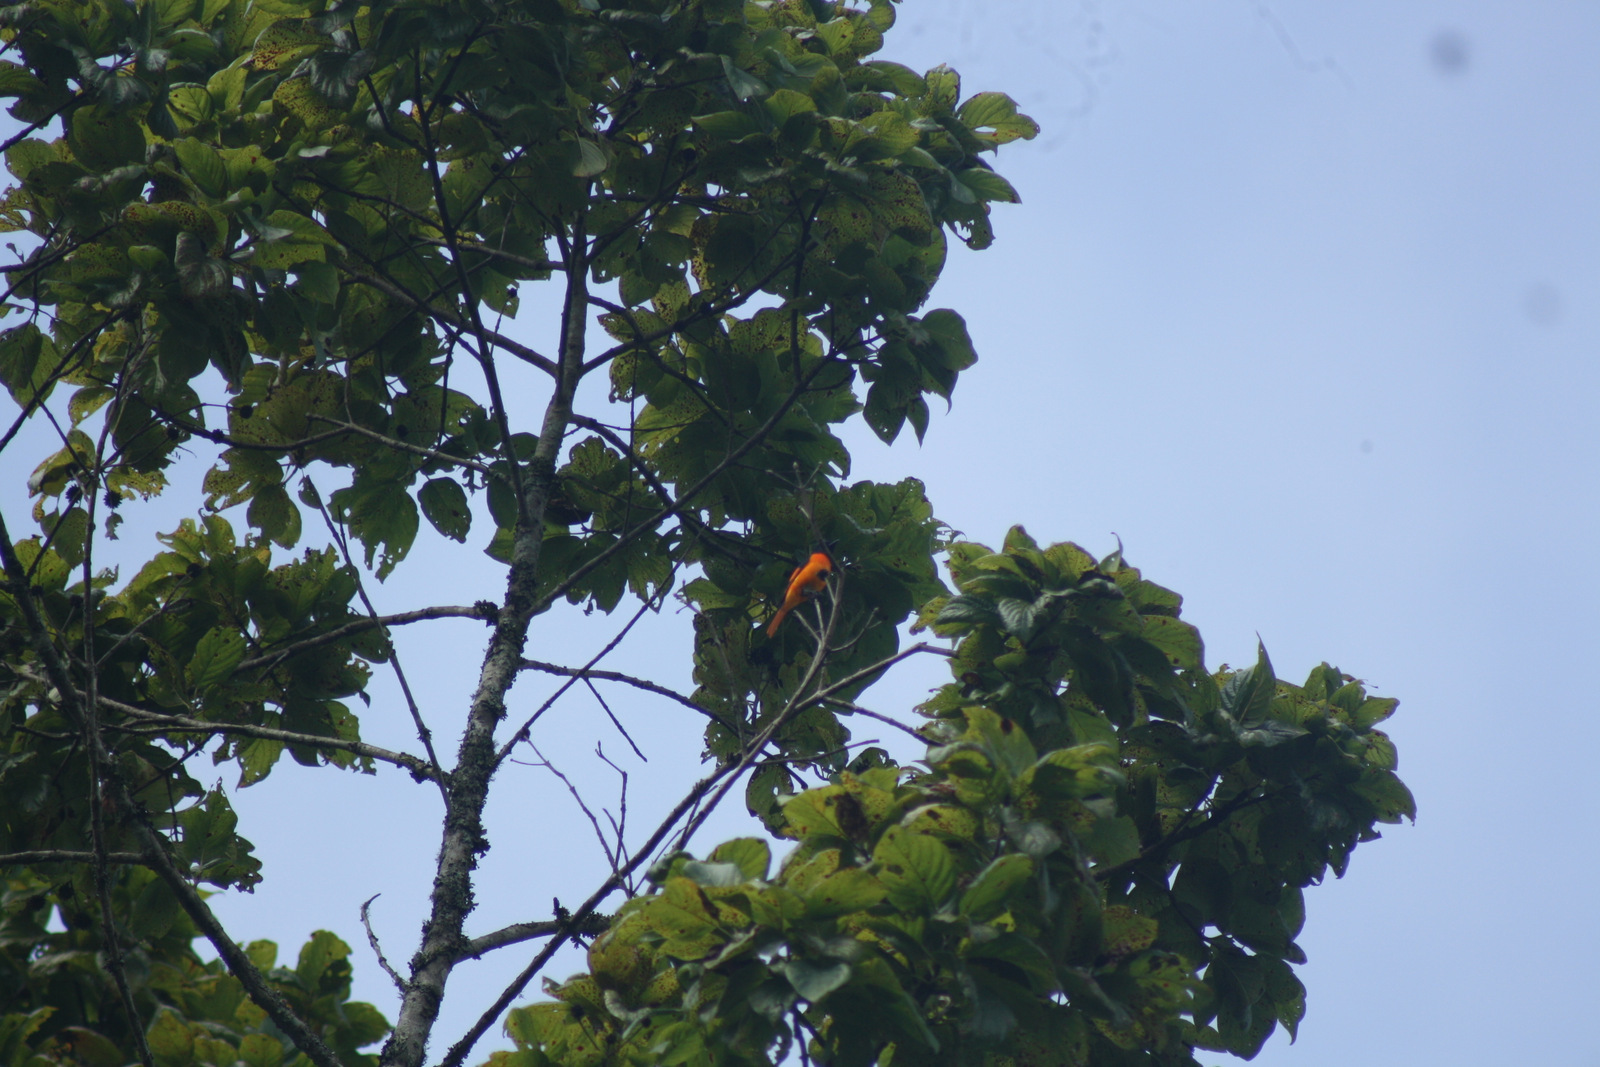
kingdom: Animalia
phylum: Chordata
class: Aves
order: Passeriformes
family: Campephagidae
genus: Pericrocotus
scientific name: Pericrocotus flammeus
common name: Orange minivet
